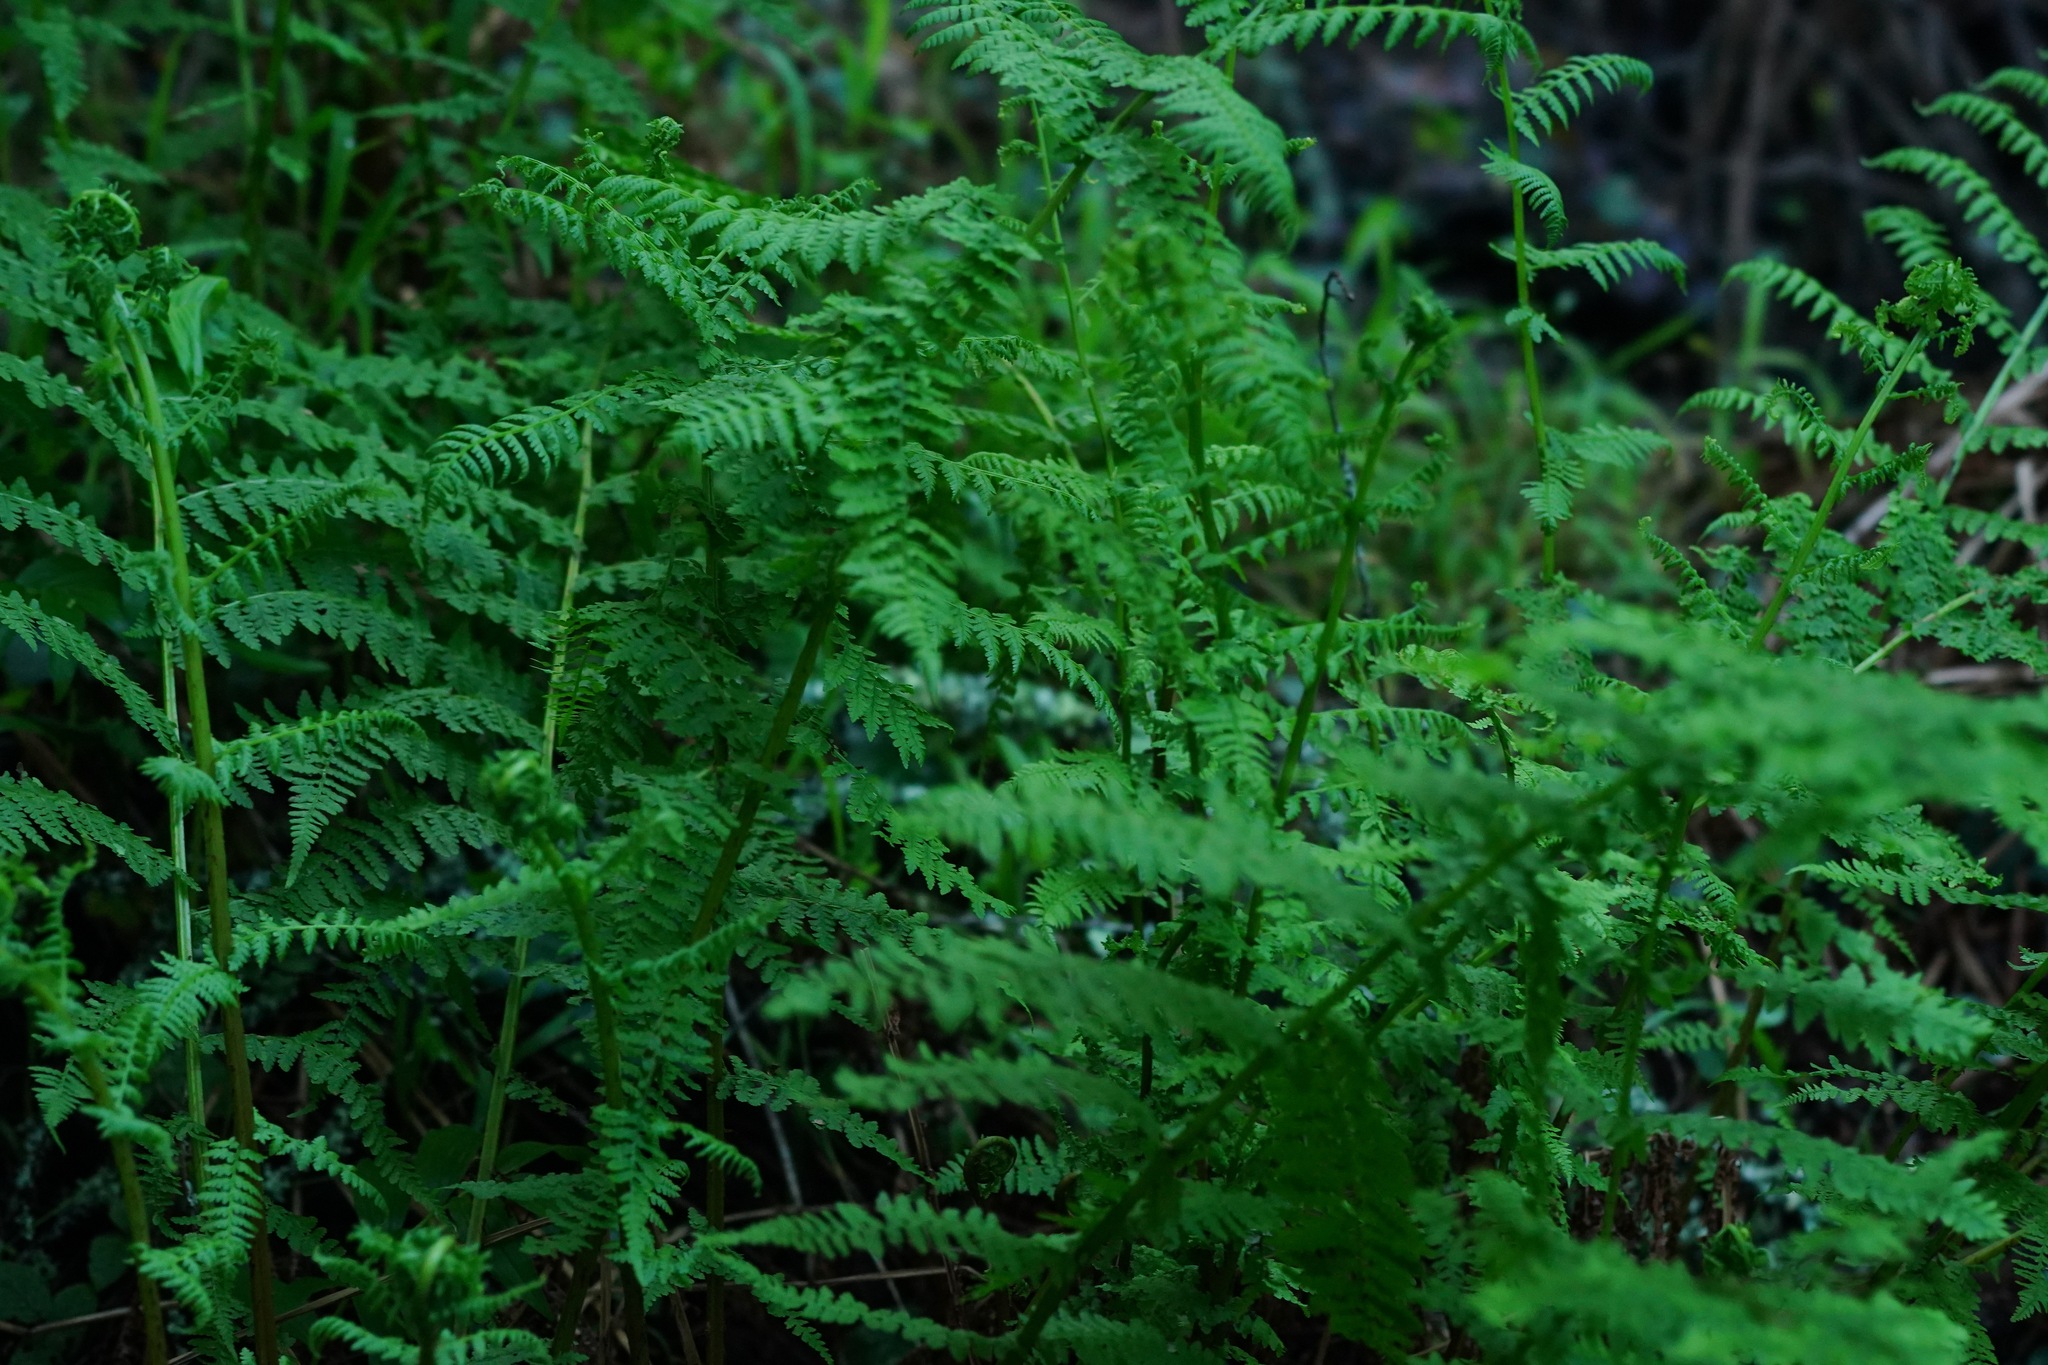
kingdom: Plantae
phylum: Tracheophyta
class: Polypodiopsida
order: Polypodiales
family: Athyriaceae
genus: Athyrium
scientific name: Athyrium filix-femina
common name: Lady fern
